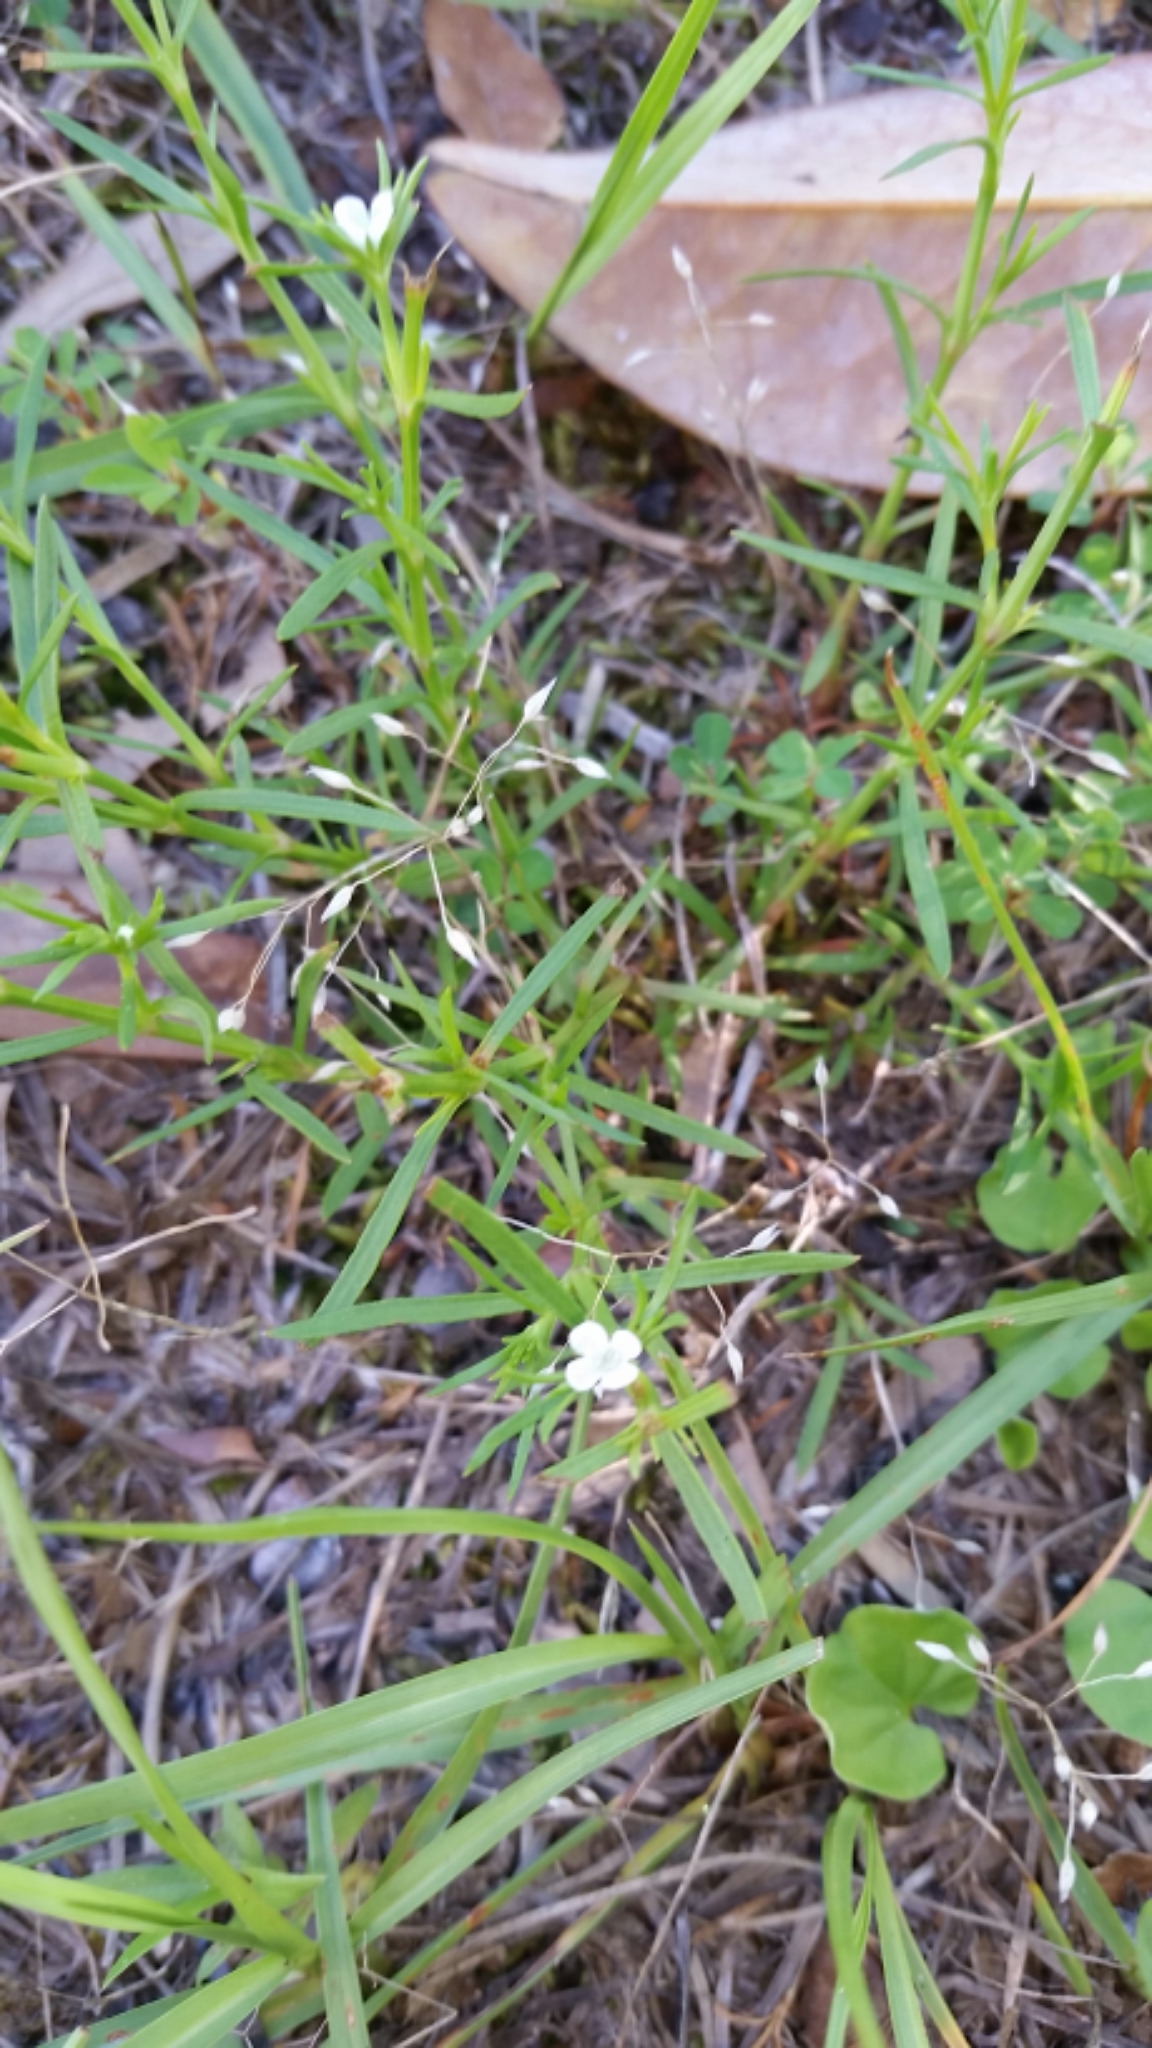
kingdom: Plantae
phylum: Tracheophyta
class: Magnoliopsida
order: Lamiales
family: Tetrachondraceae
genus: Polypremum
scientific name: Polypremum procumbens
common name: Juniper-leaf
